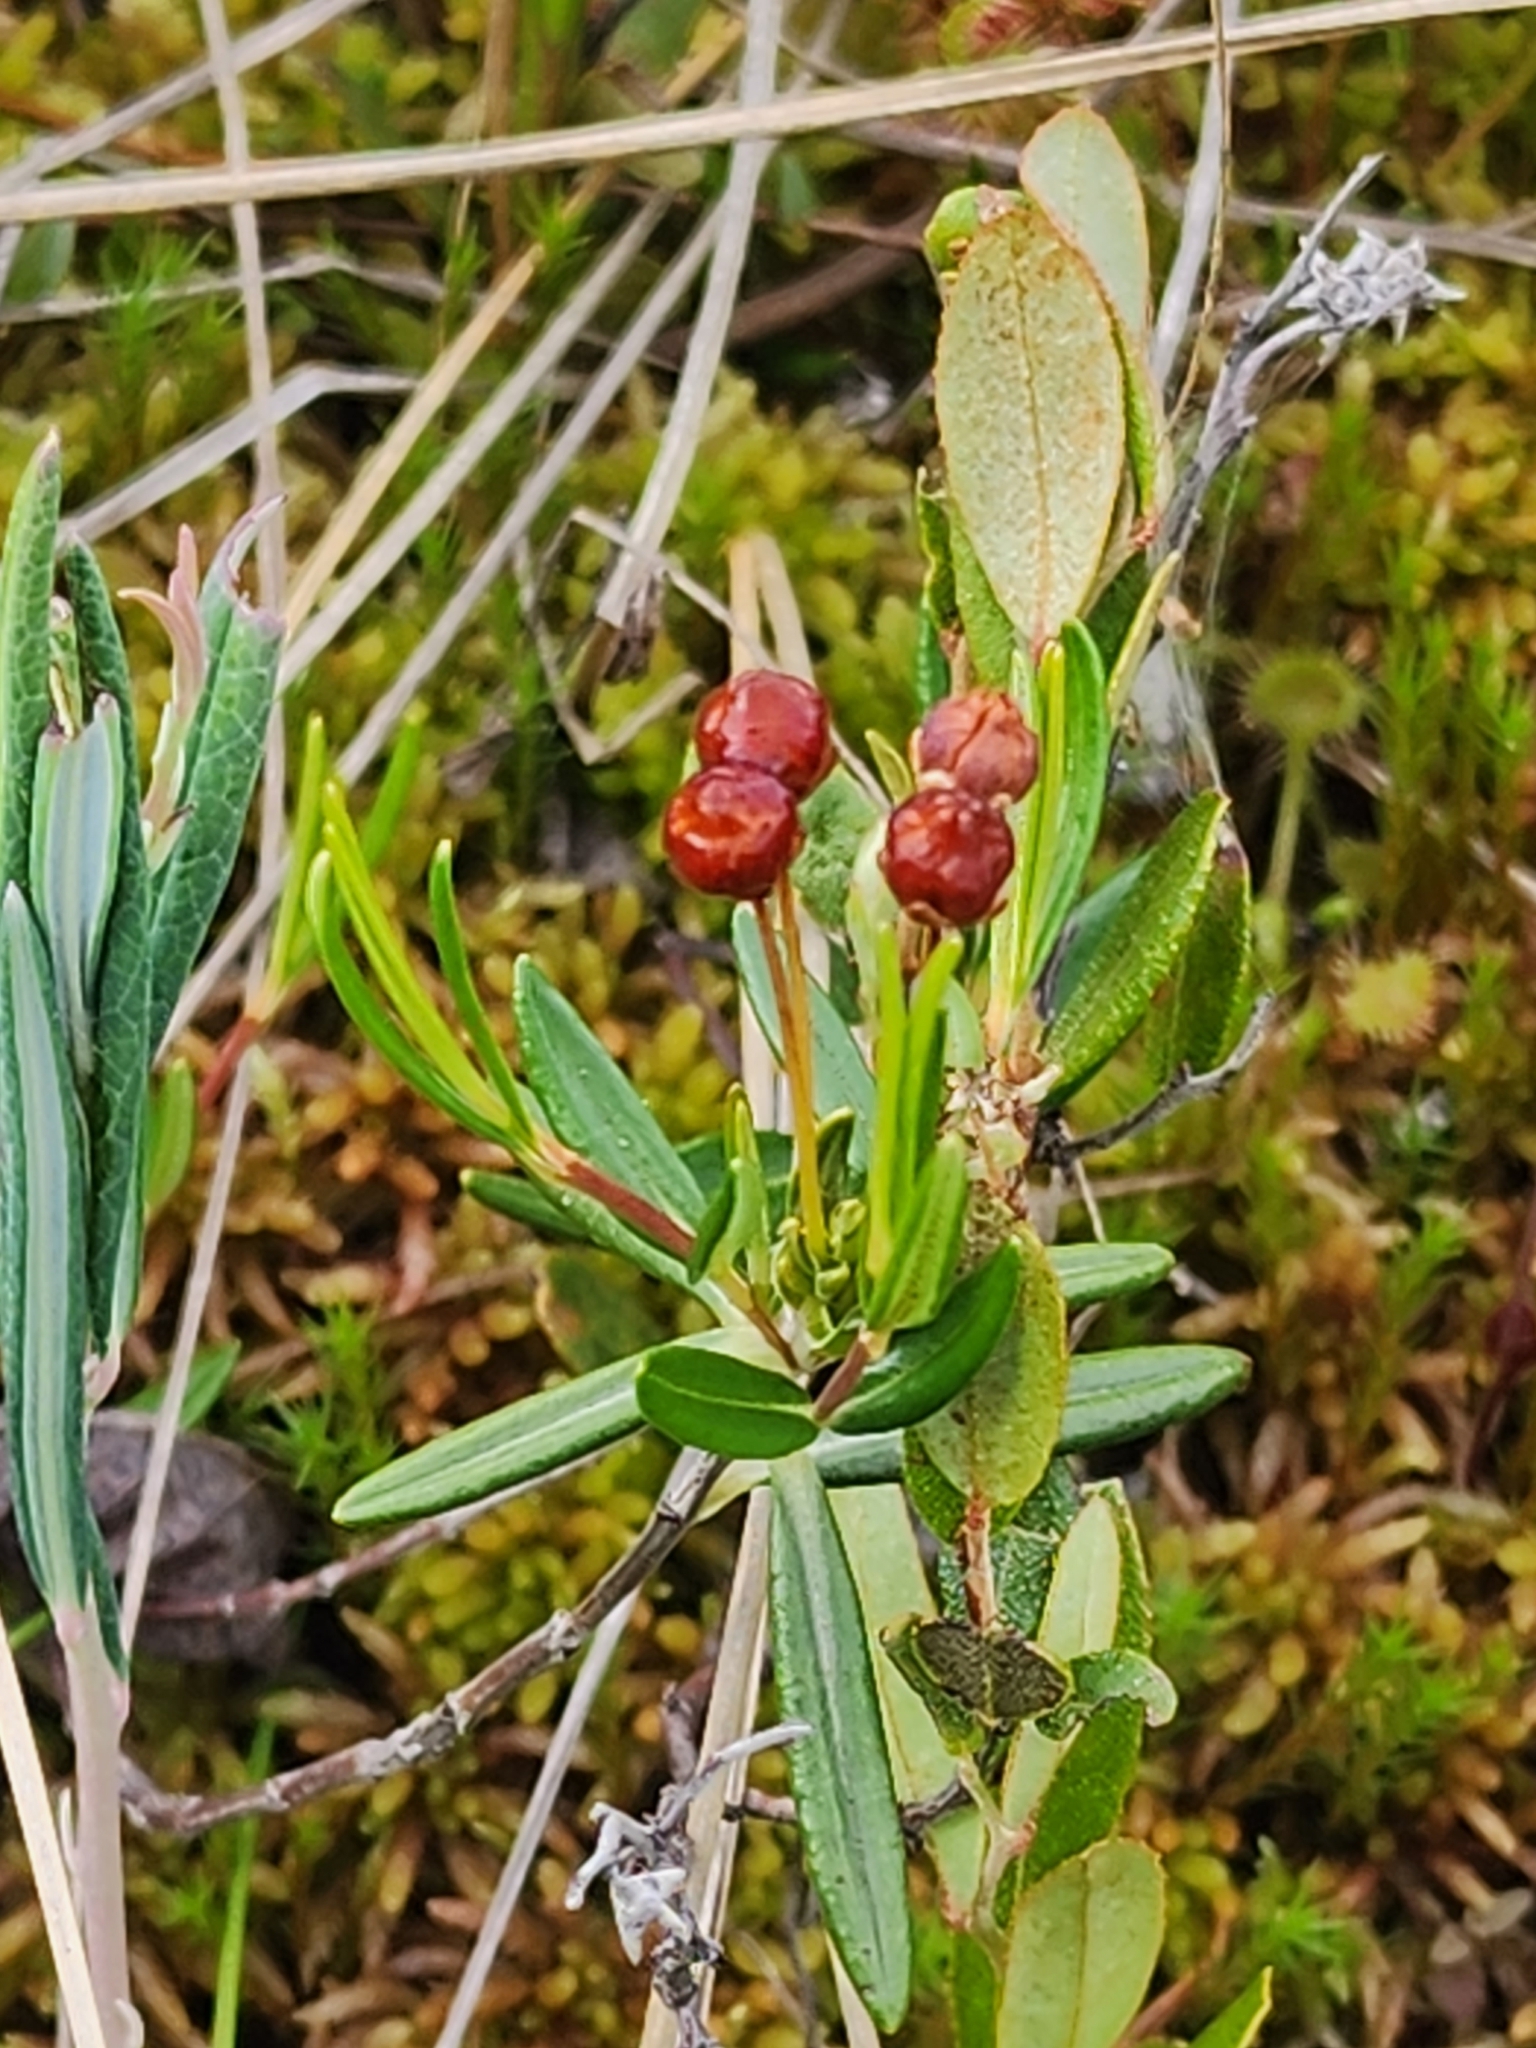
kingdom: Plantae
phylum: Tracheophyta
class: Magnoliopsida
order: Ericales
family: Ericaceae
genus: Kalmia
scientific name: Kalmia polifolia
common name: Bog-laurel
